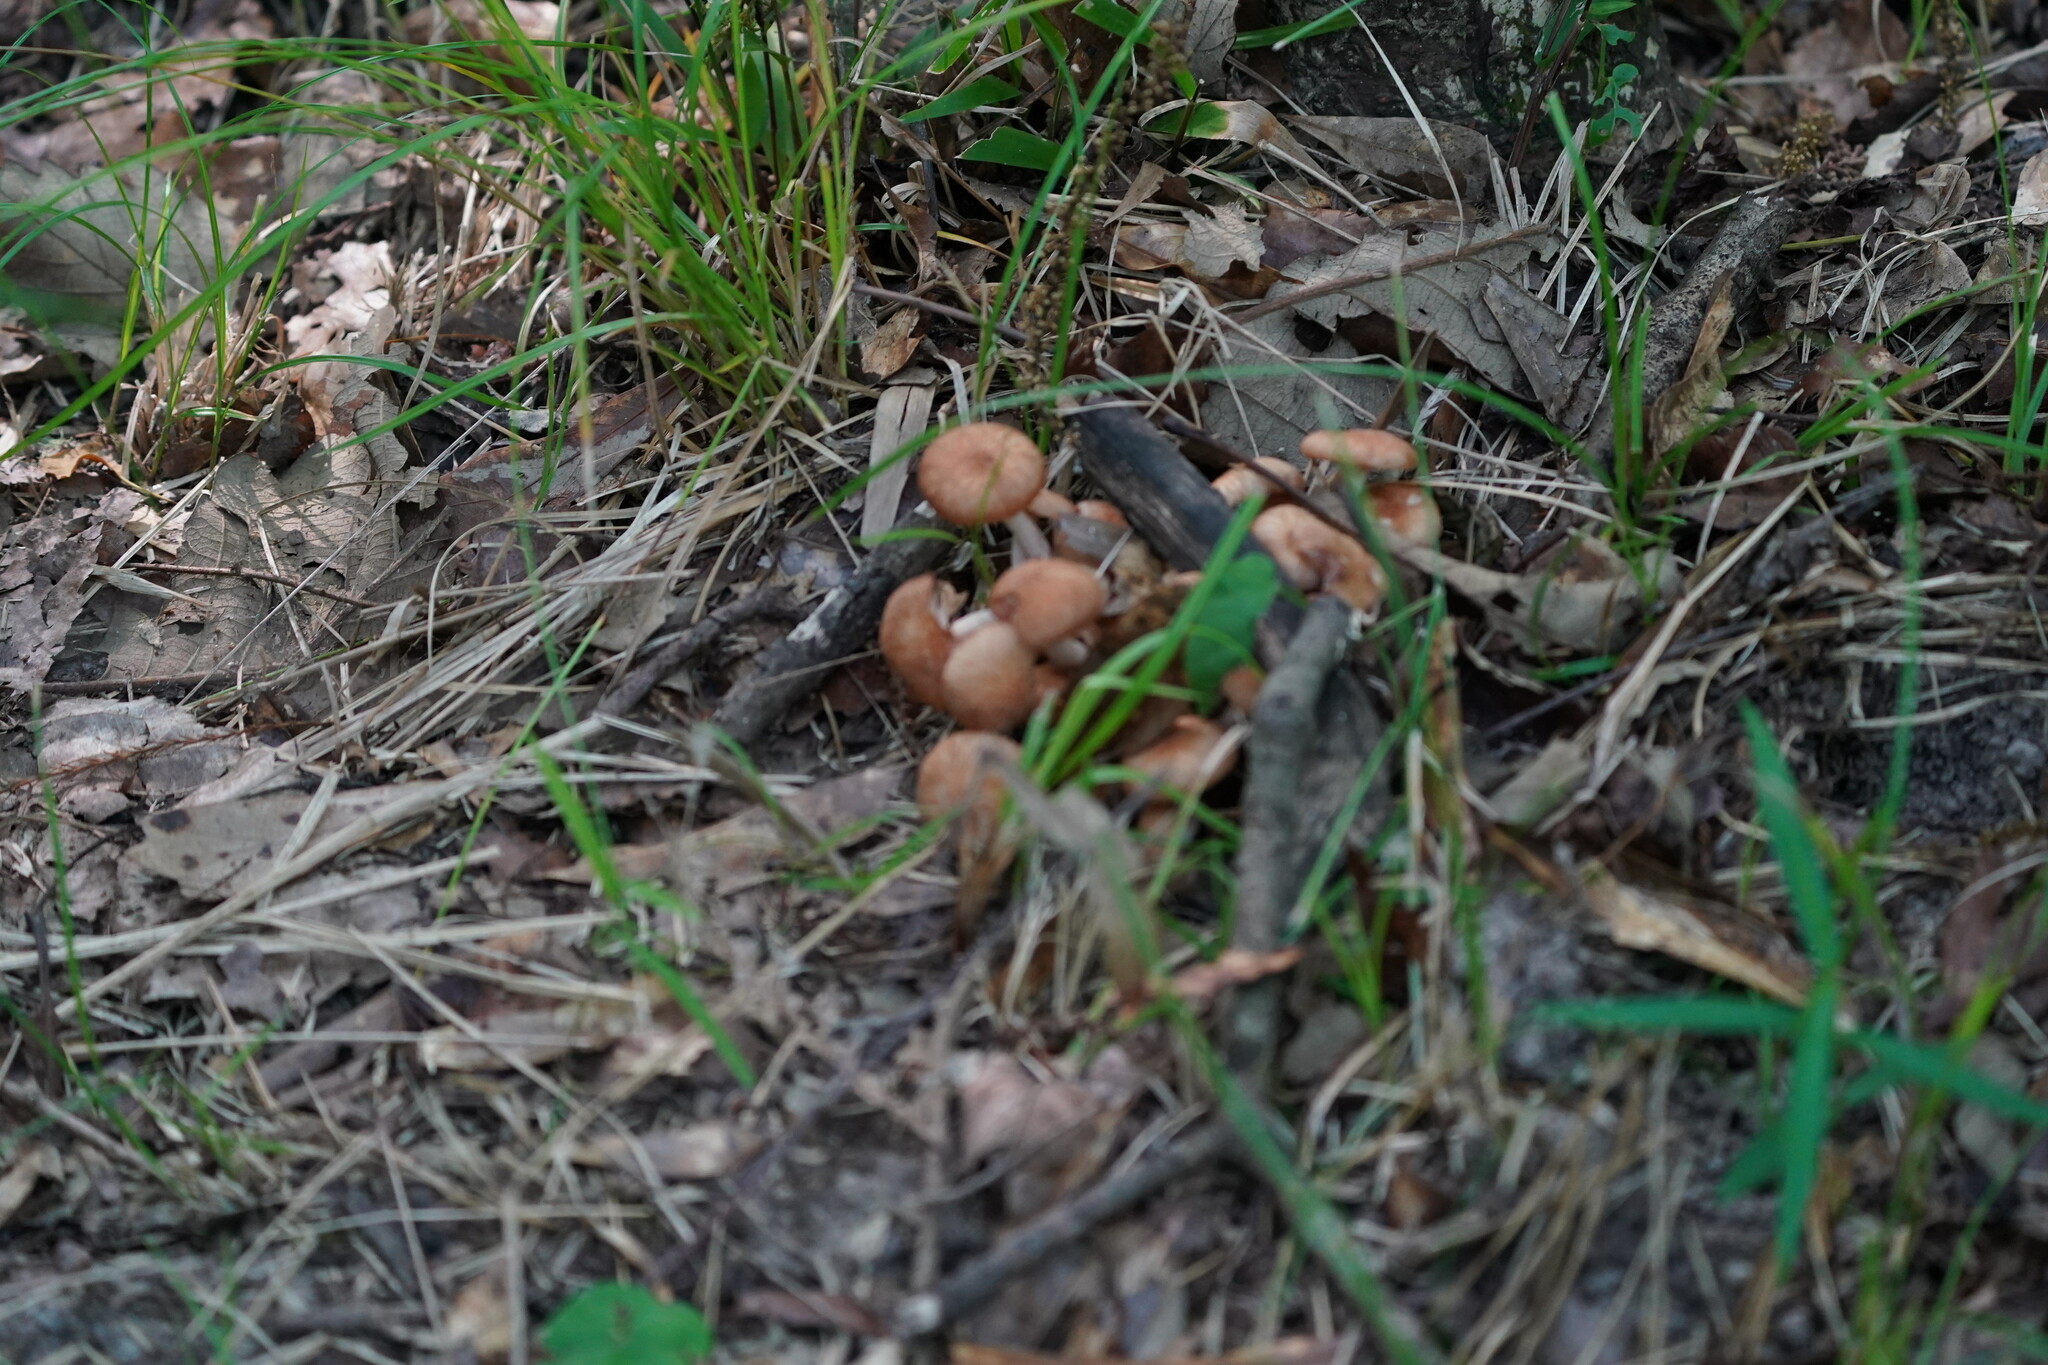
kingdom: Fungi
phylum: Basidiomycota
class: Agaricomycetes
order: Agaricales
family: Physalacriaceae
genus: Desarmillaria
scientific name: Desarmillaria caespitosa
